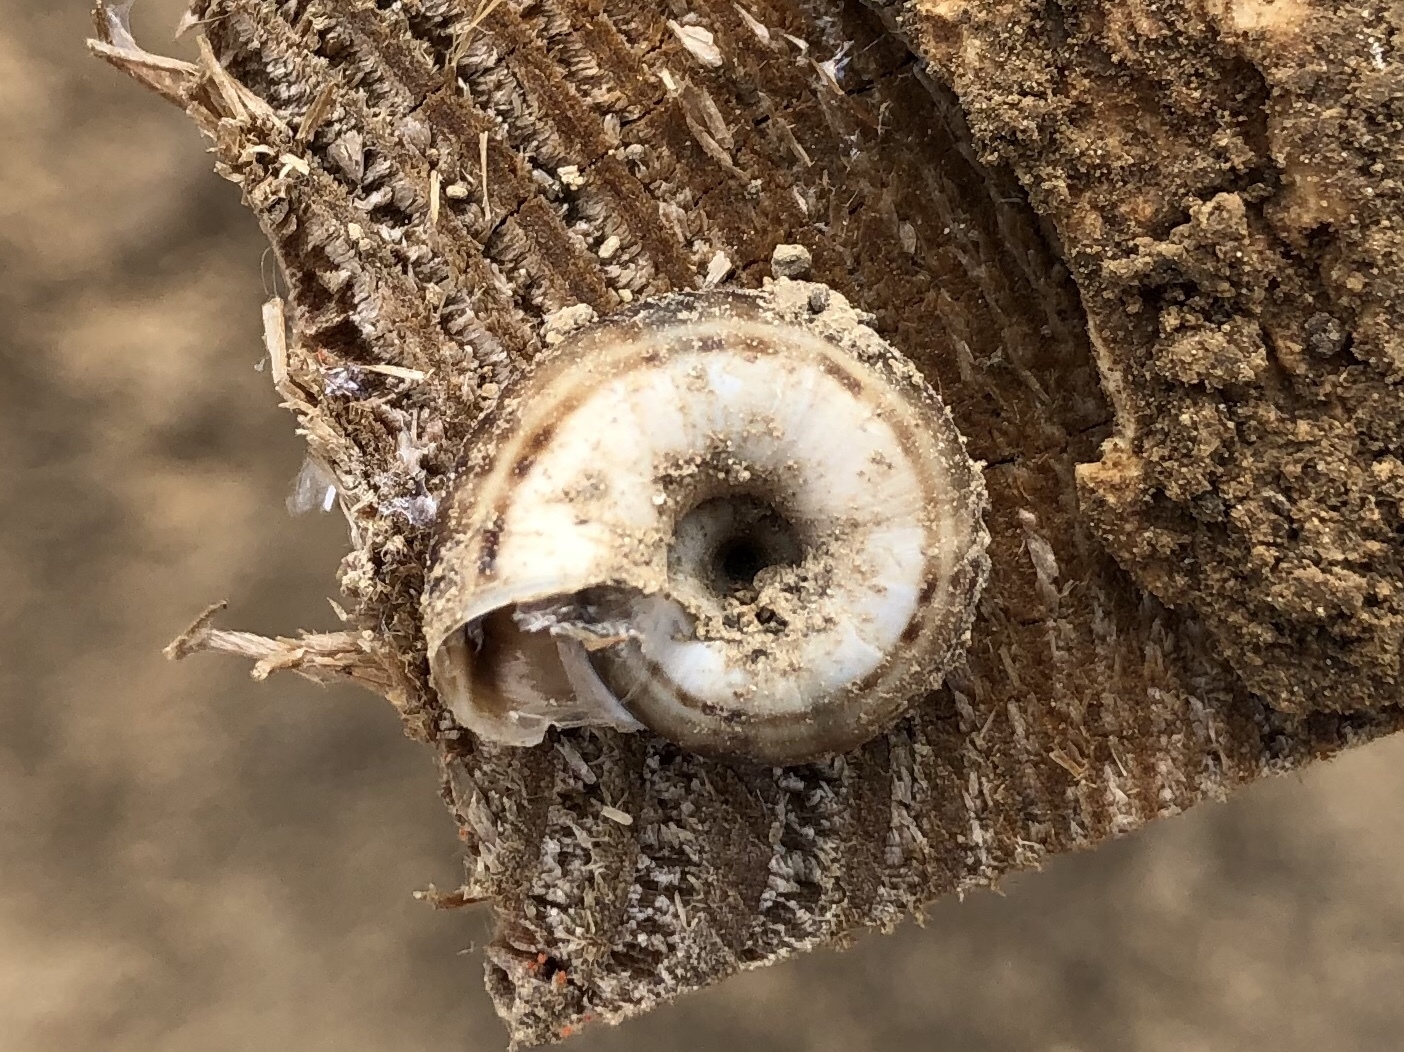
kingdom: Animalia
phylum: Mollusca
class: Gastropoda
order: Stylommatophora
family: Geomitridae
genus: Xerolenta
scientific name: Xerolenta obvia
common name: White heath snail
